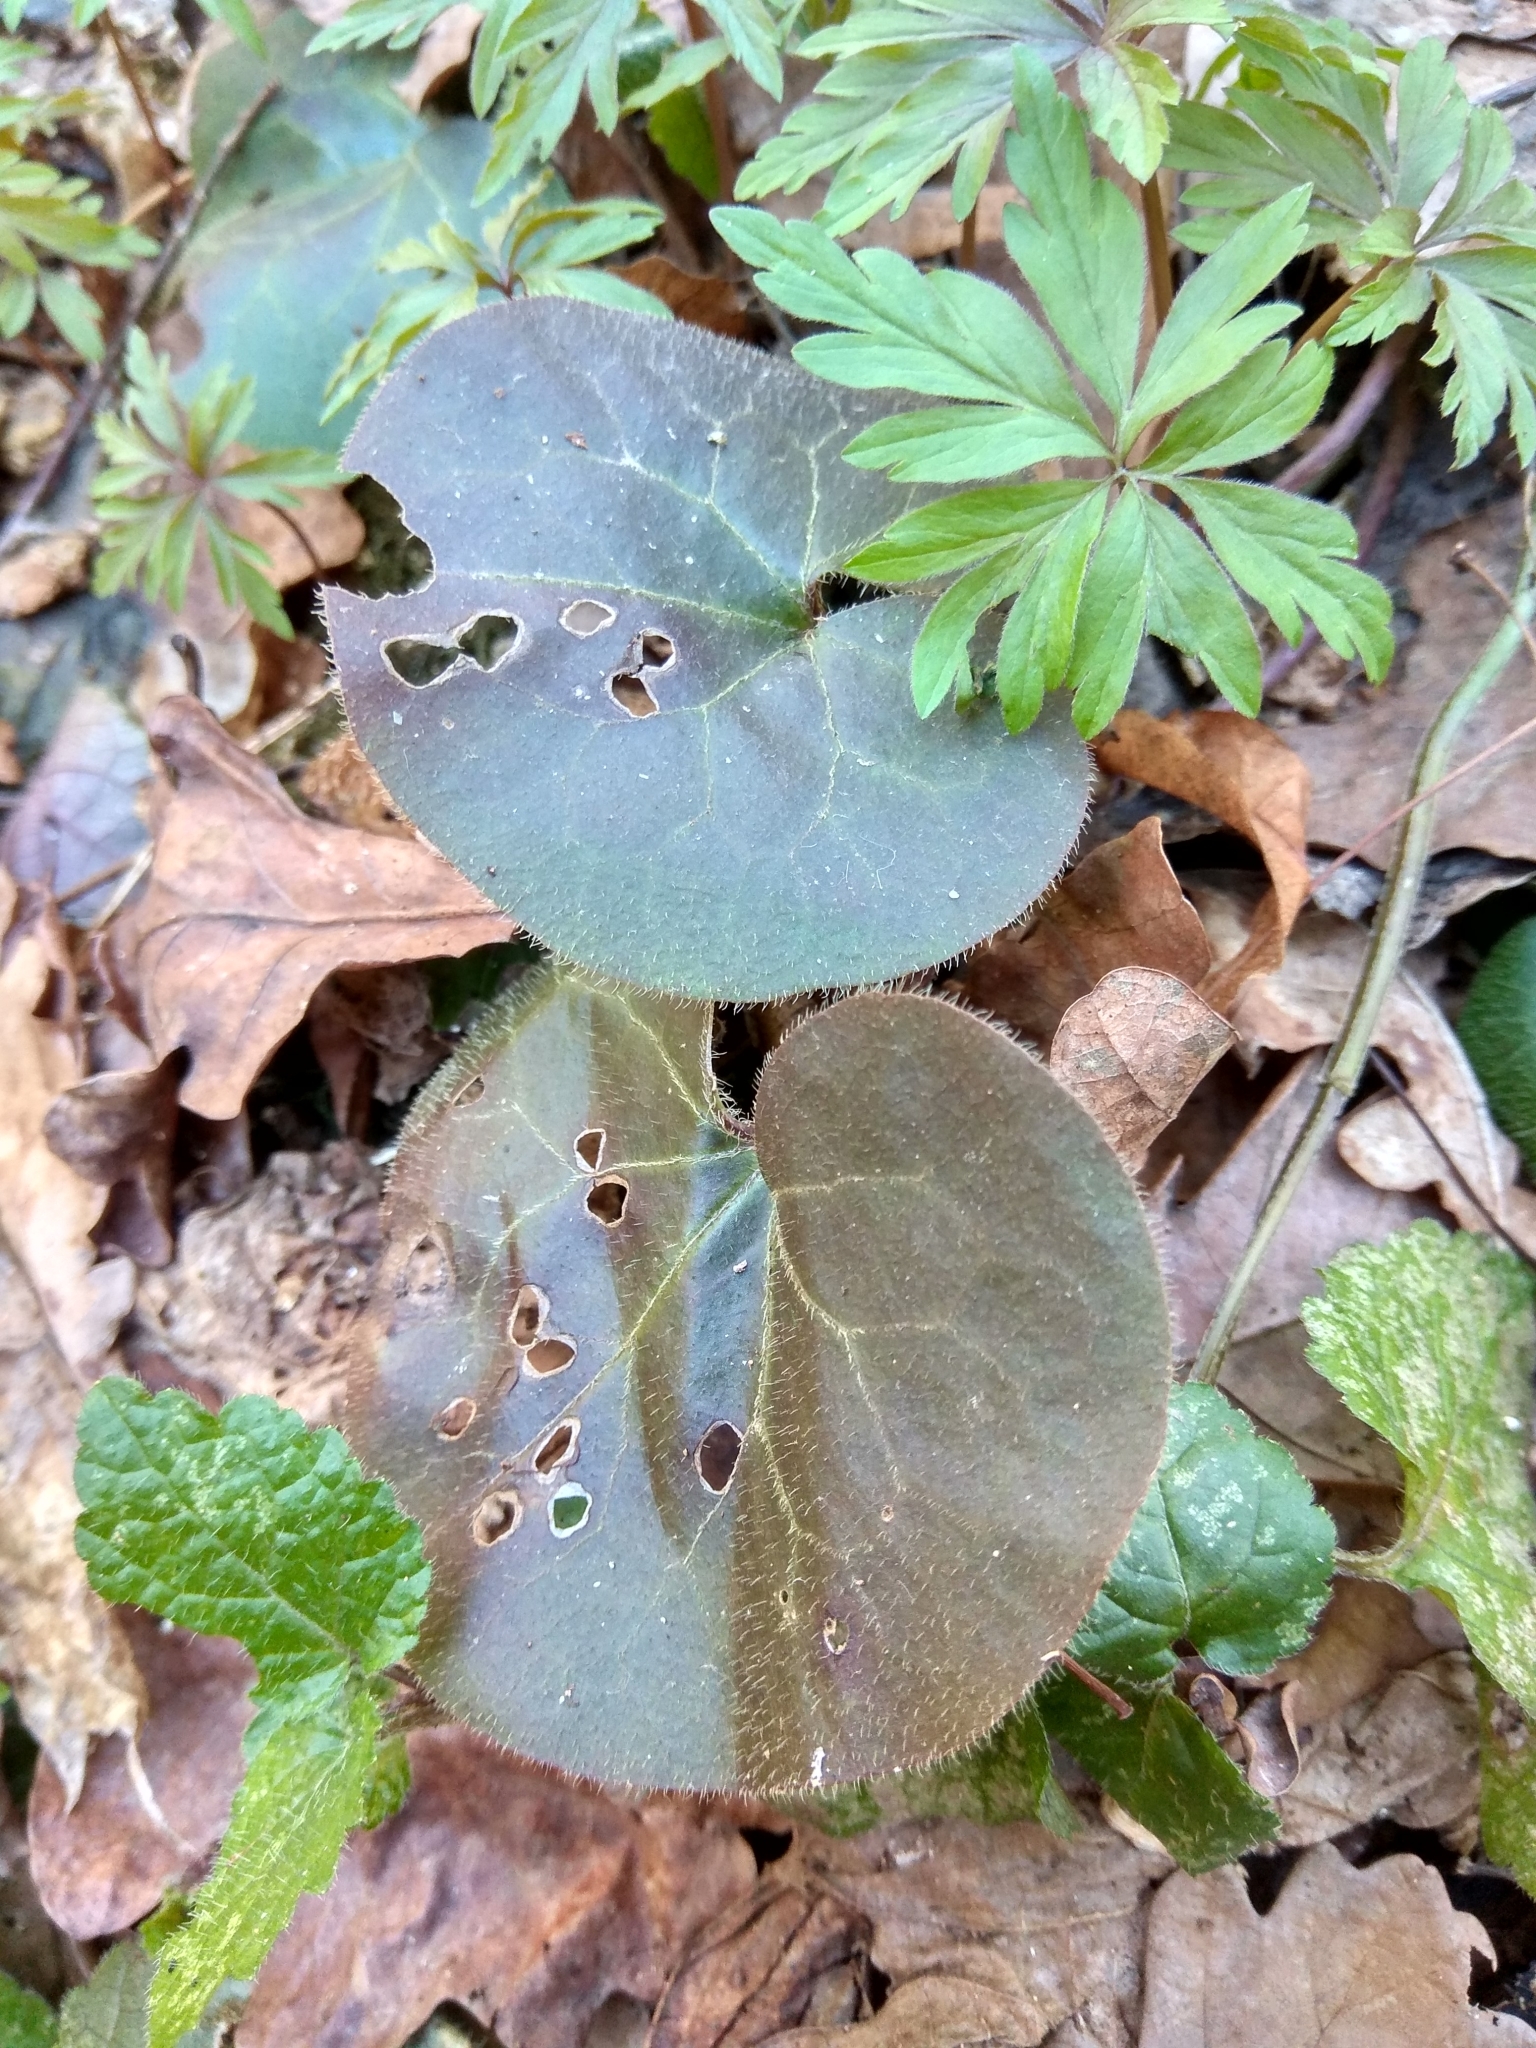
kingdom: Plantae
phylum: Tracheophyta
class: Magnoliopsida
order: Piperales
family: Aristolochiaceae
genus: Asarum
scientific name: Asarum europaeum
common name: Asarabacca
